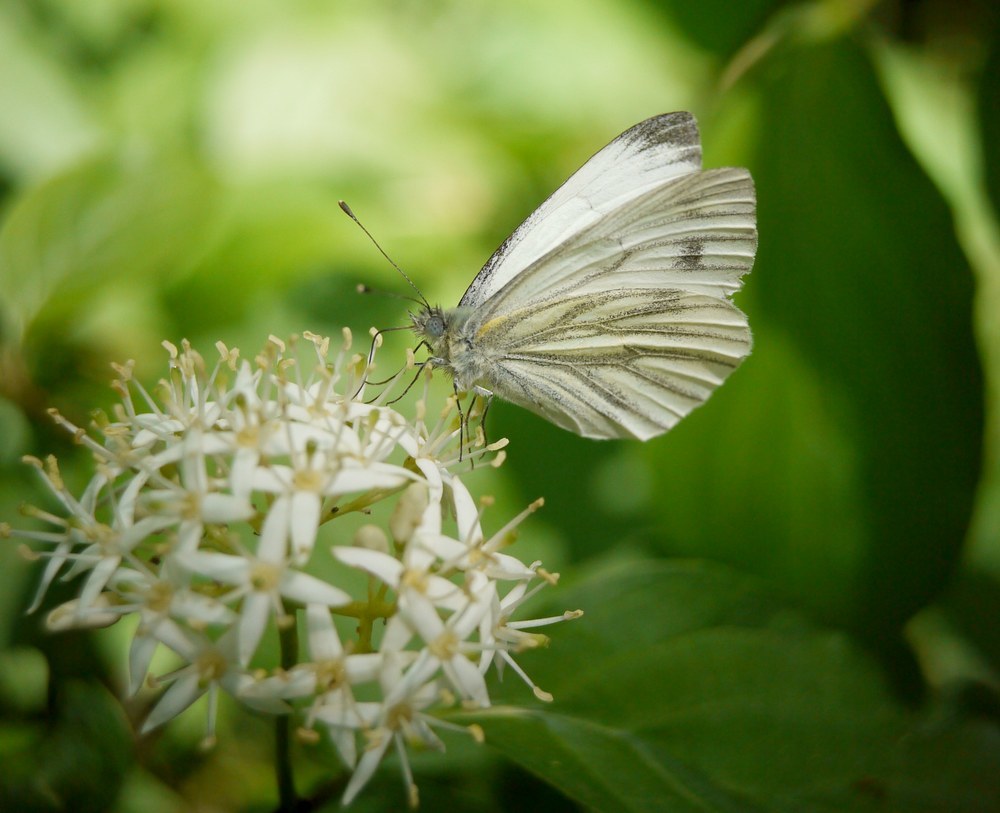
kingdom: Animalia
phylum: Arthropoda
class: Insecta
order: Lepidoptera
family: Pieridae
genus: Pieris
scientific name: Pieris napi
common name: Green-veined white
